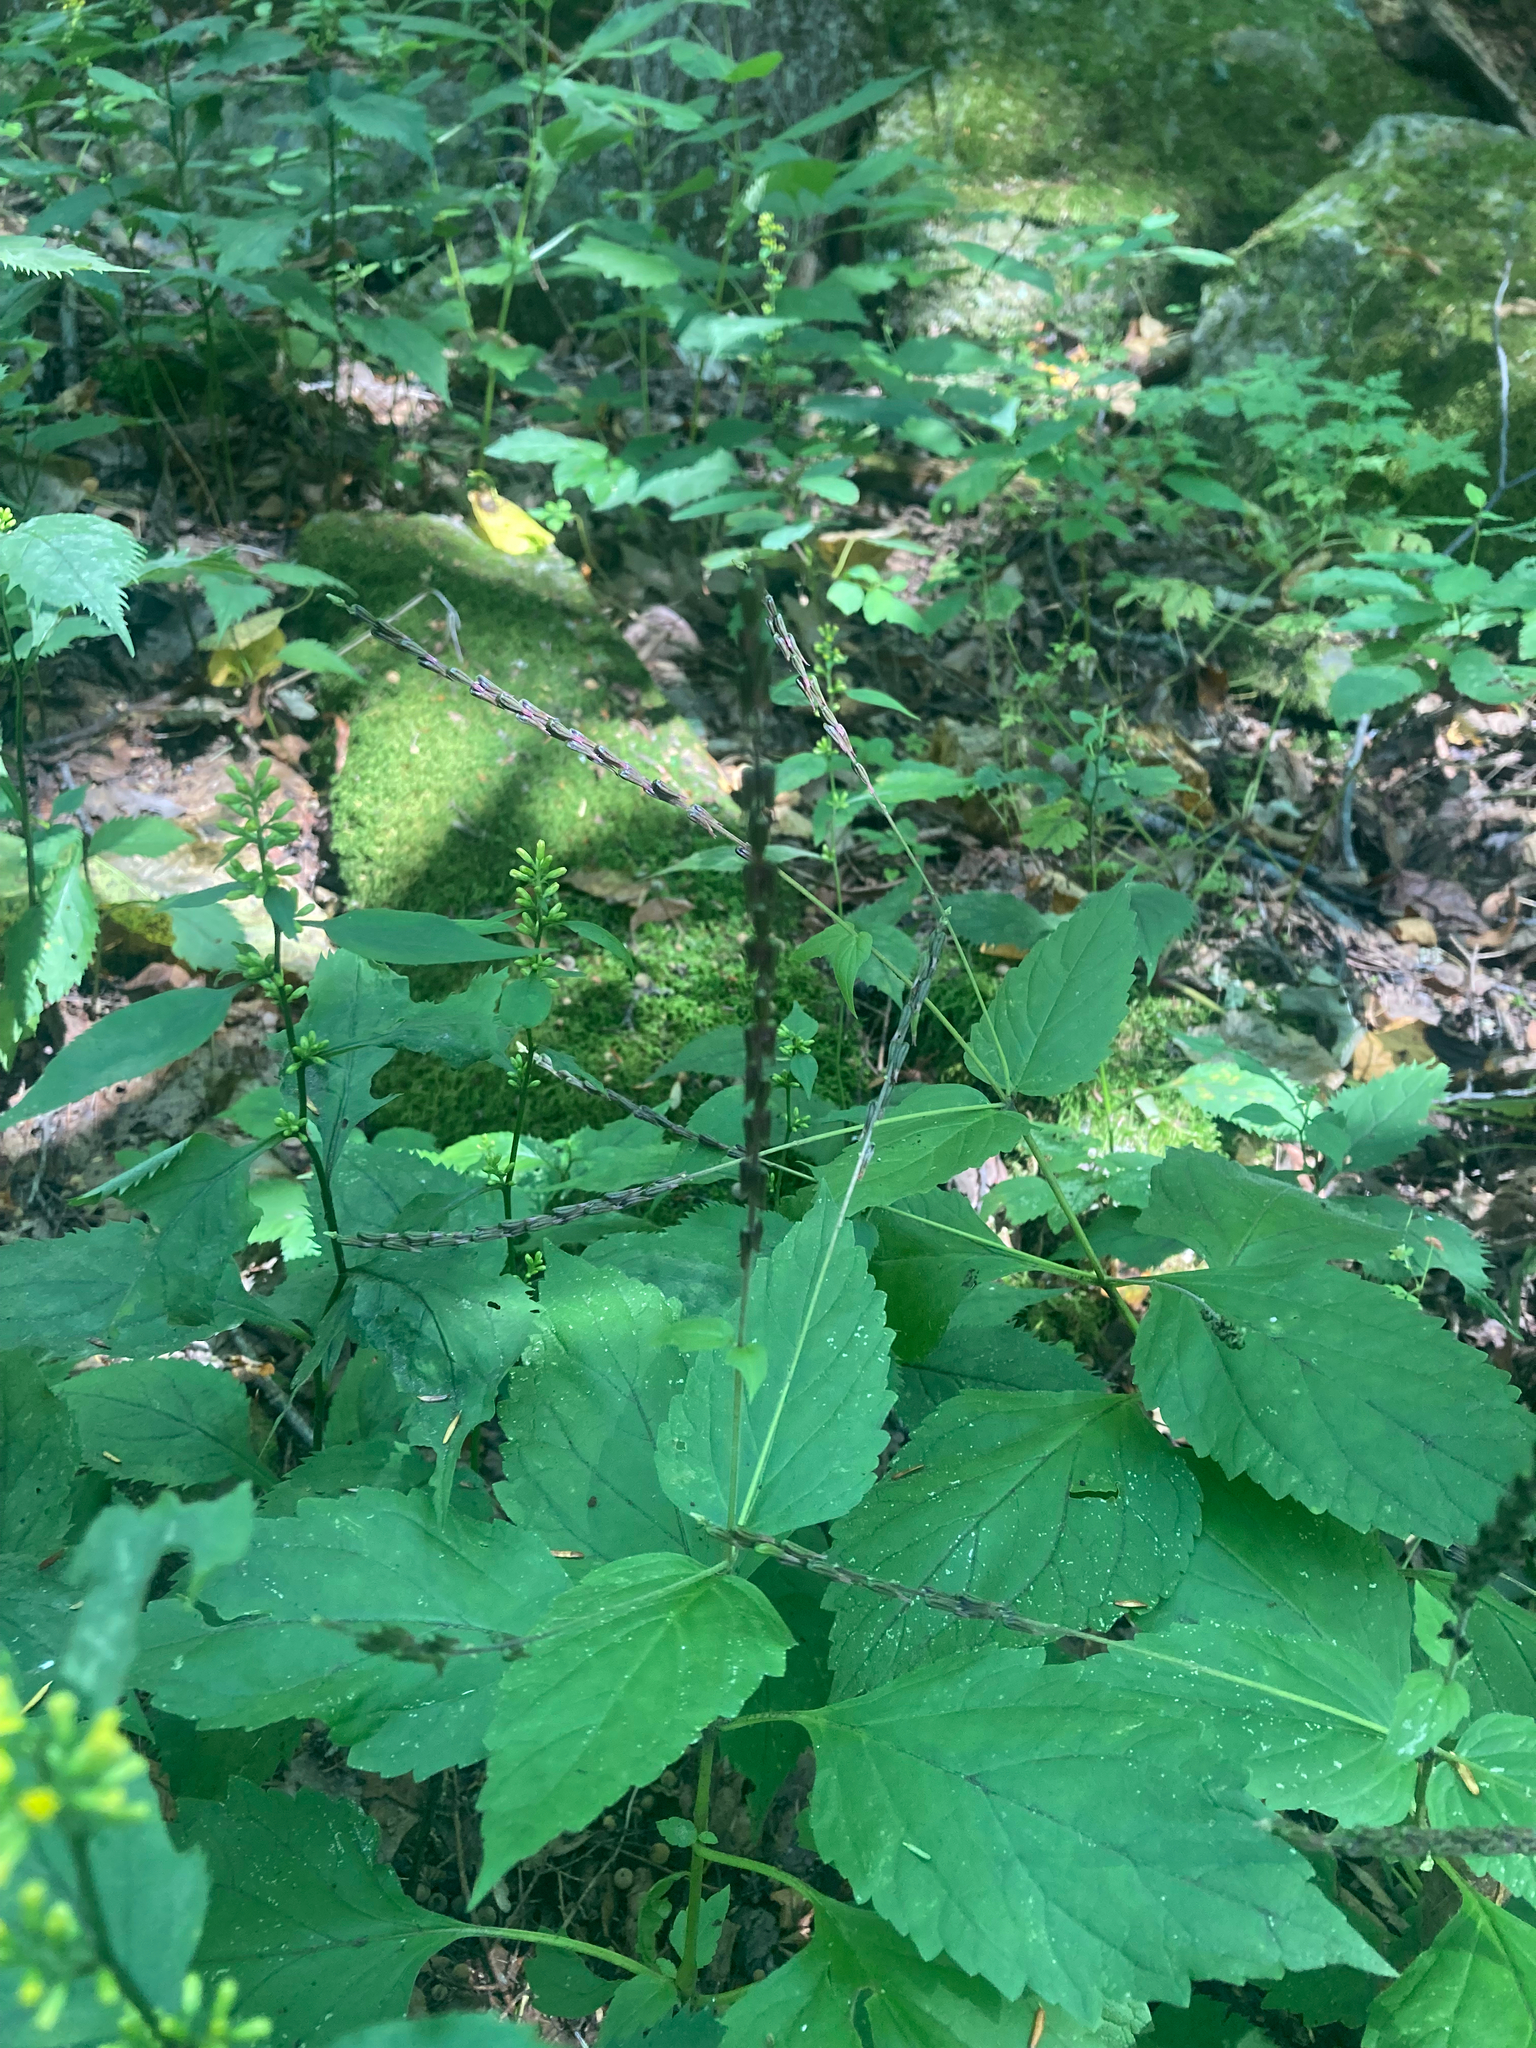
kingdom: Plantae
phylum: Tracheophyta
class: Magnoliopsida
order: Lamiales
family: Phrymaceae
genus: Phryma
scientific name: Phryma leptostachya
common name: American lopseed
